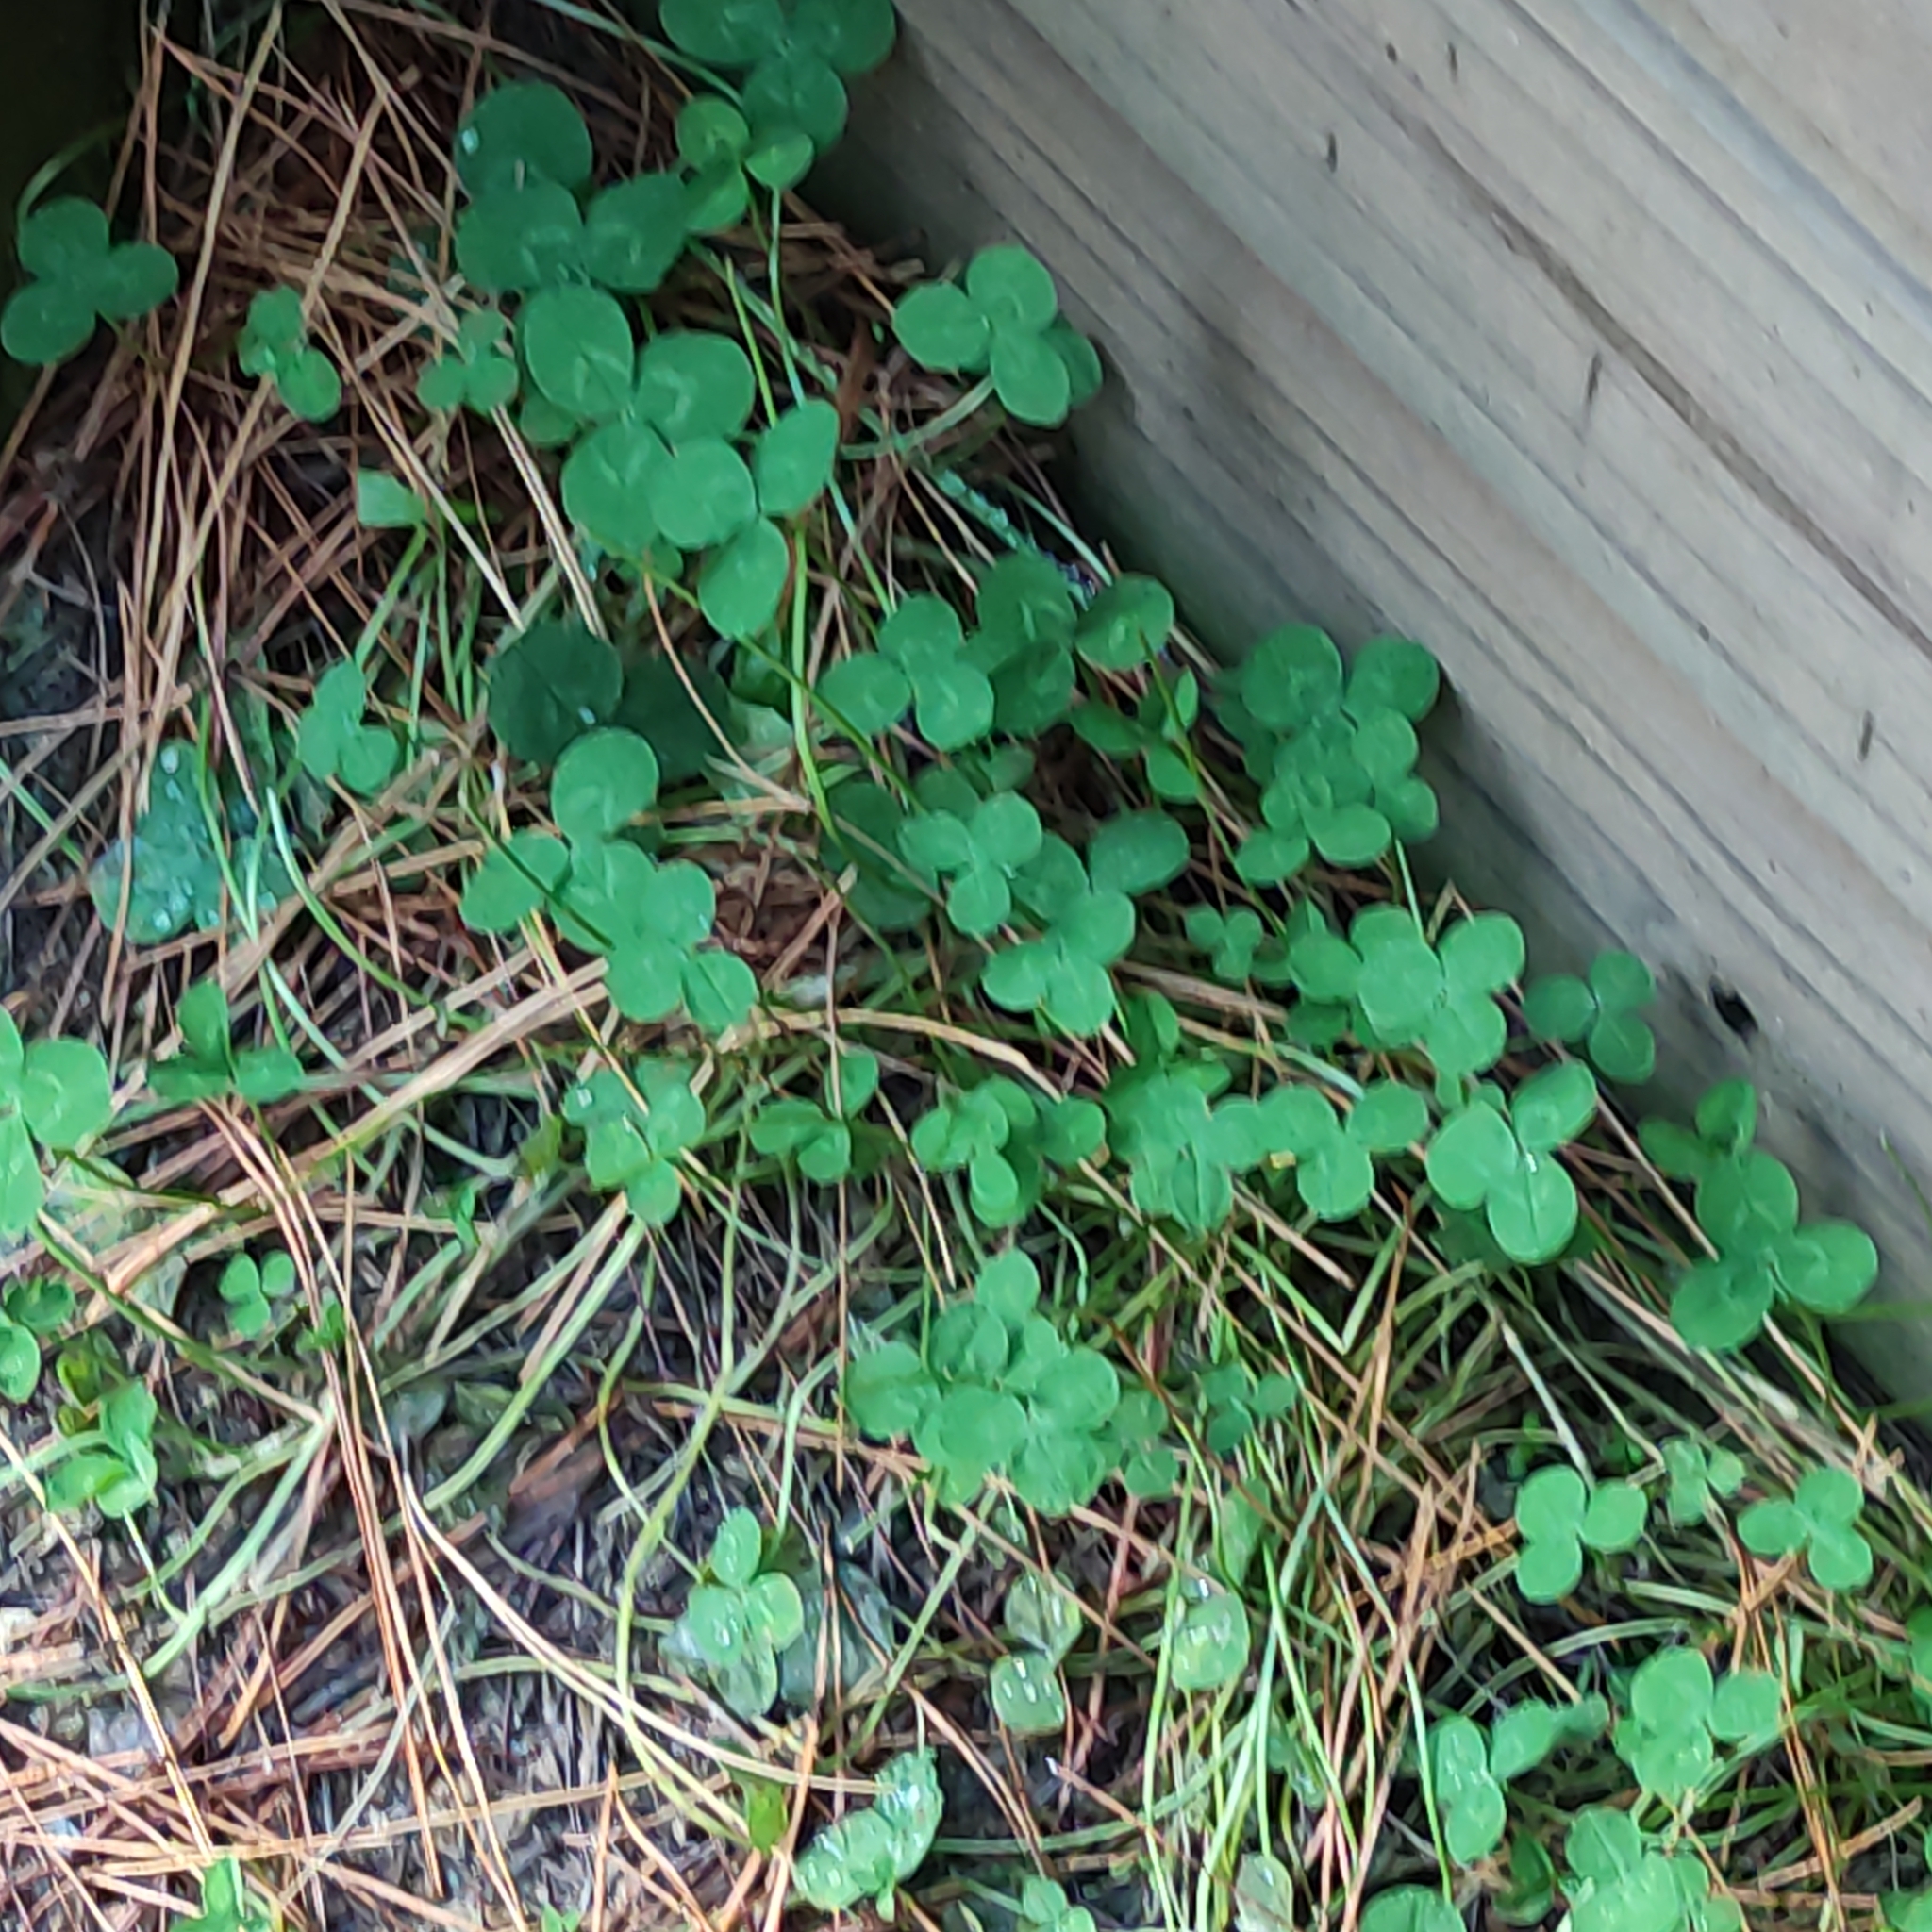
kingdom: Plantae
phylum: Tracheophyta
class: Magnoliopsida
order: Fabales
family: Fabaceae
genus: Trifolium
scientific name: Trifolium repens
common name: White clover
